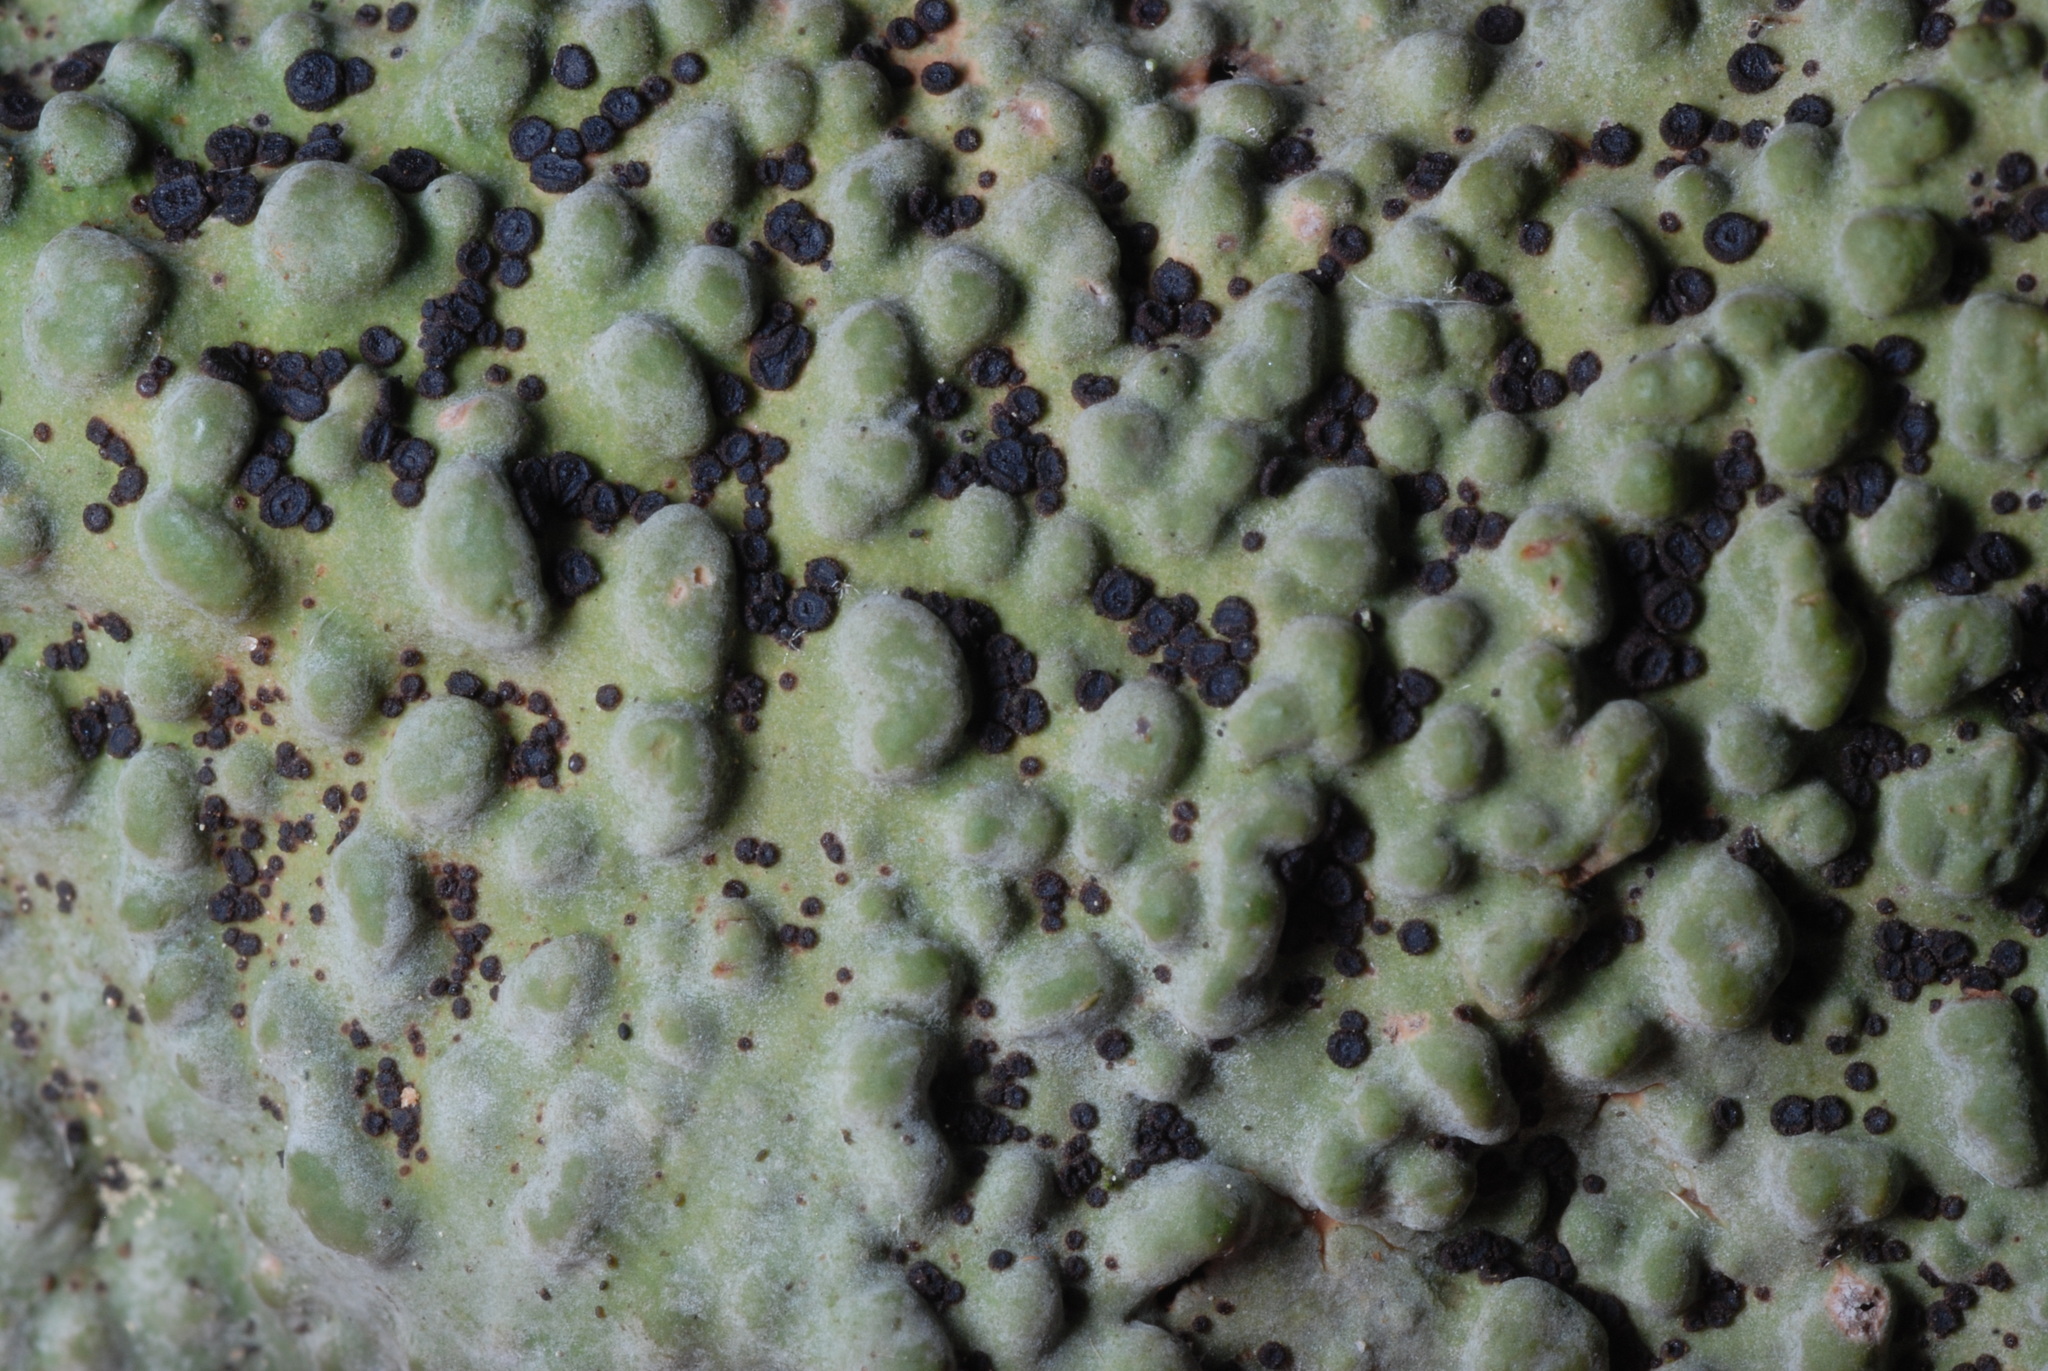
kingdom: Fungi
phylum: Ascomycota
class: Lecanoromycetes
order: Umbilicariales
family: Umbilicariaceae
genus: Lasallia
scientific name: Lasallia papulosa
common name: Common toadskin lichen
